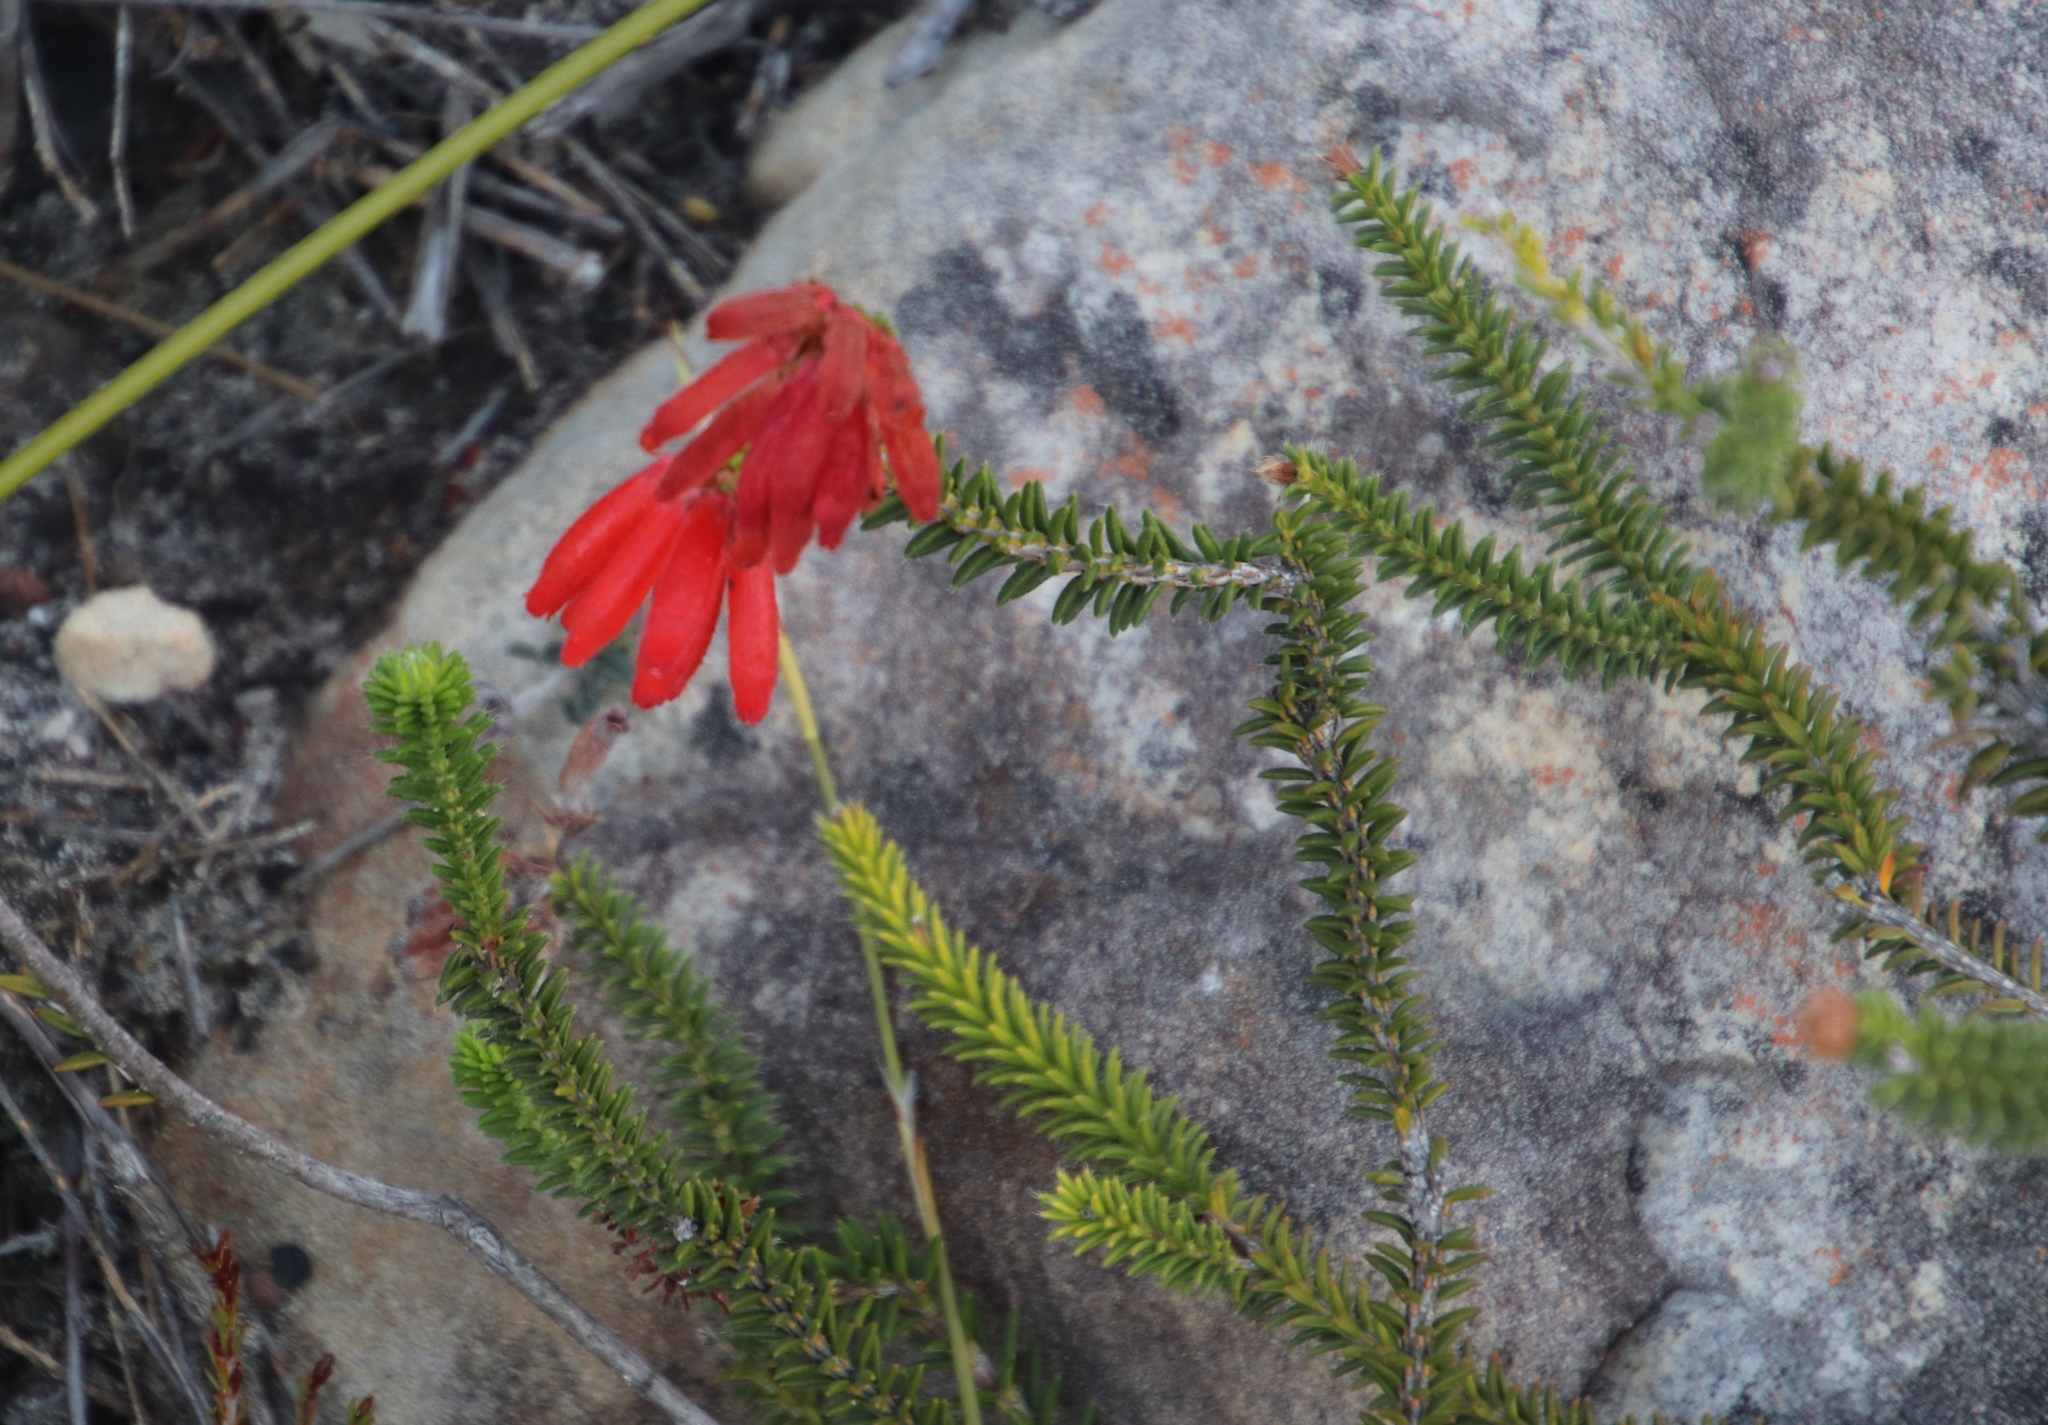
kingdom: Plantae
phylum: Tracheophyta
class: Magnoliopsida
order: Ericales
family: Ericaceae
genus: Erica
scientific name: Erica cerinthoides
